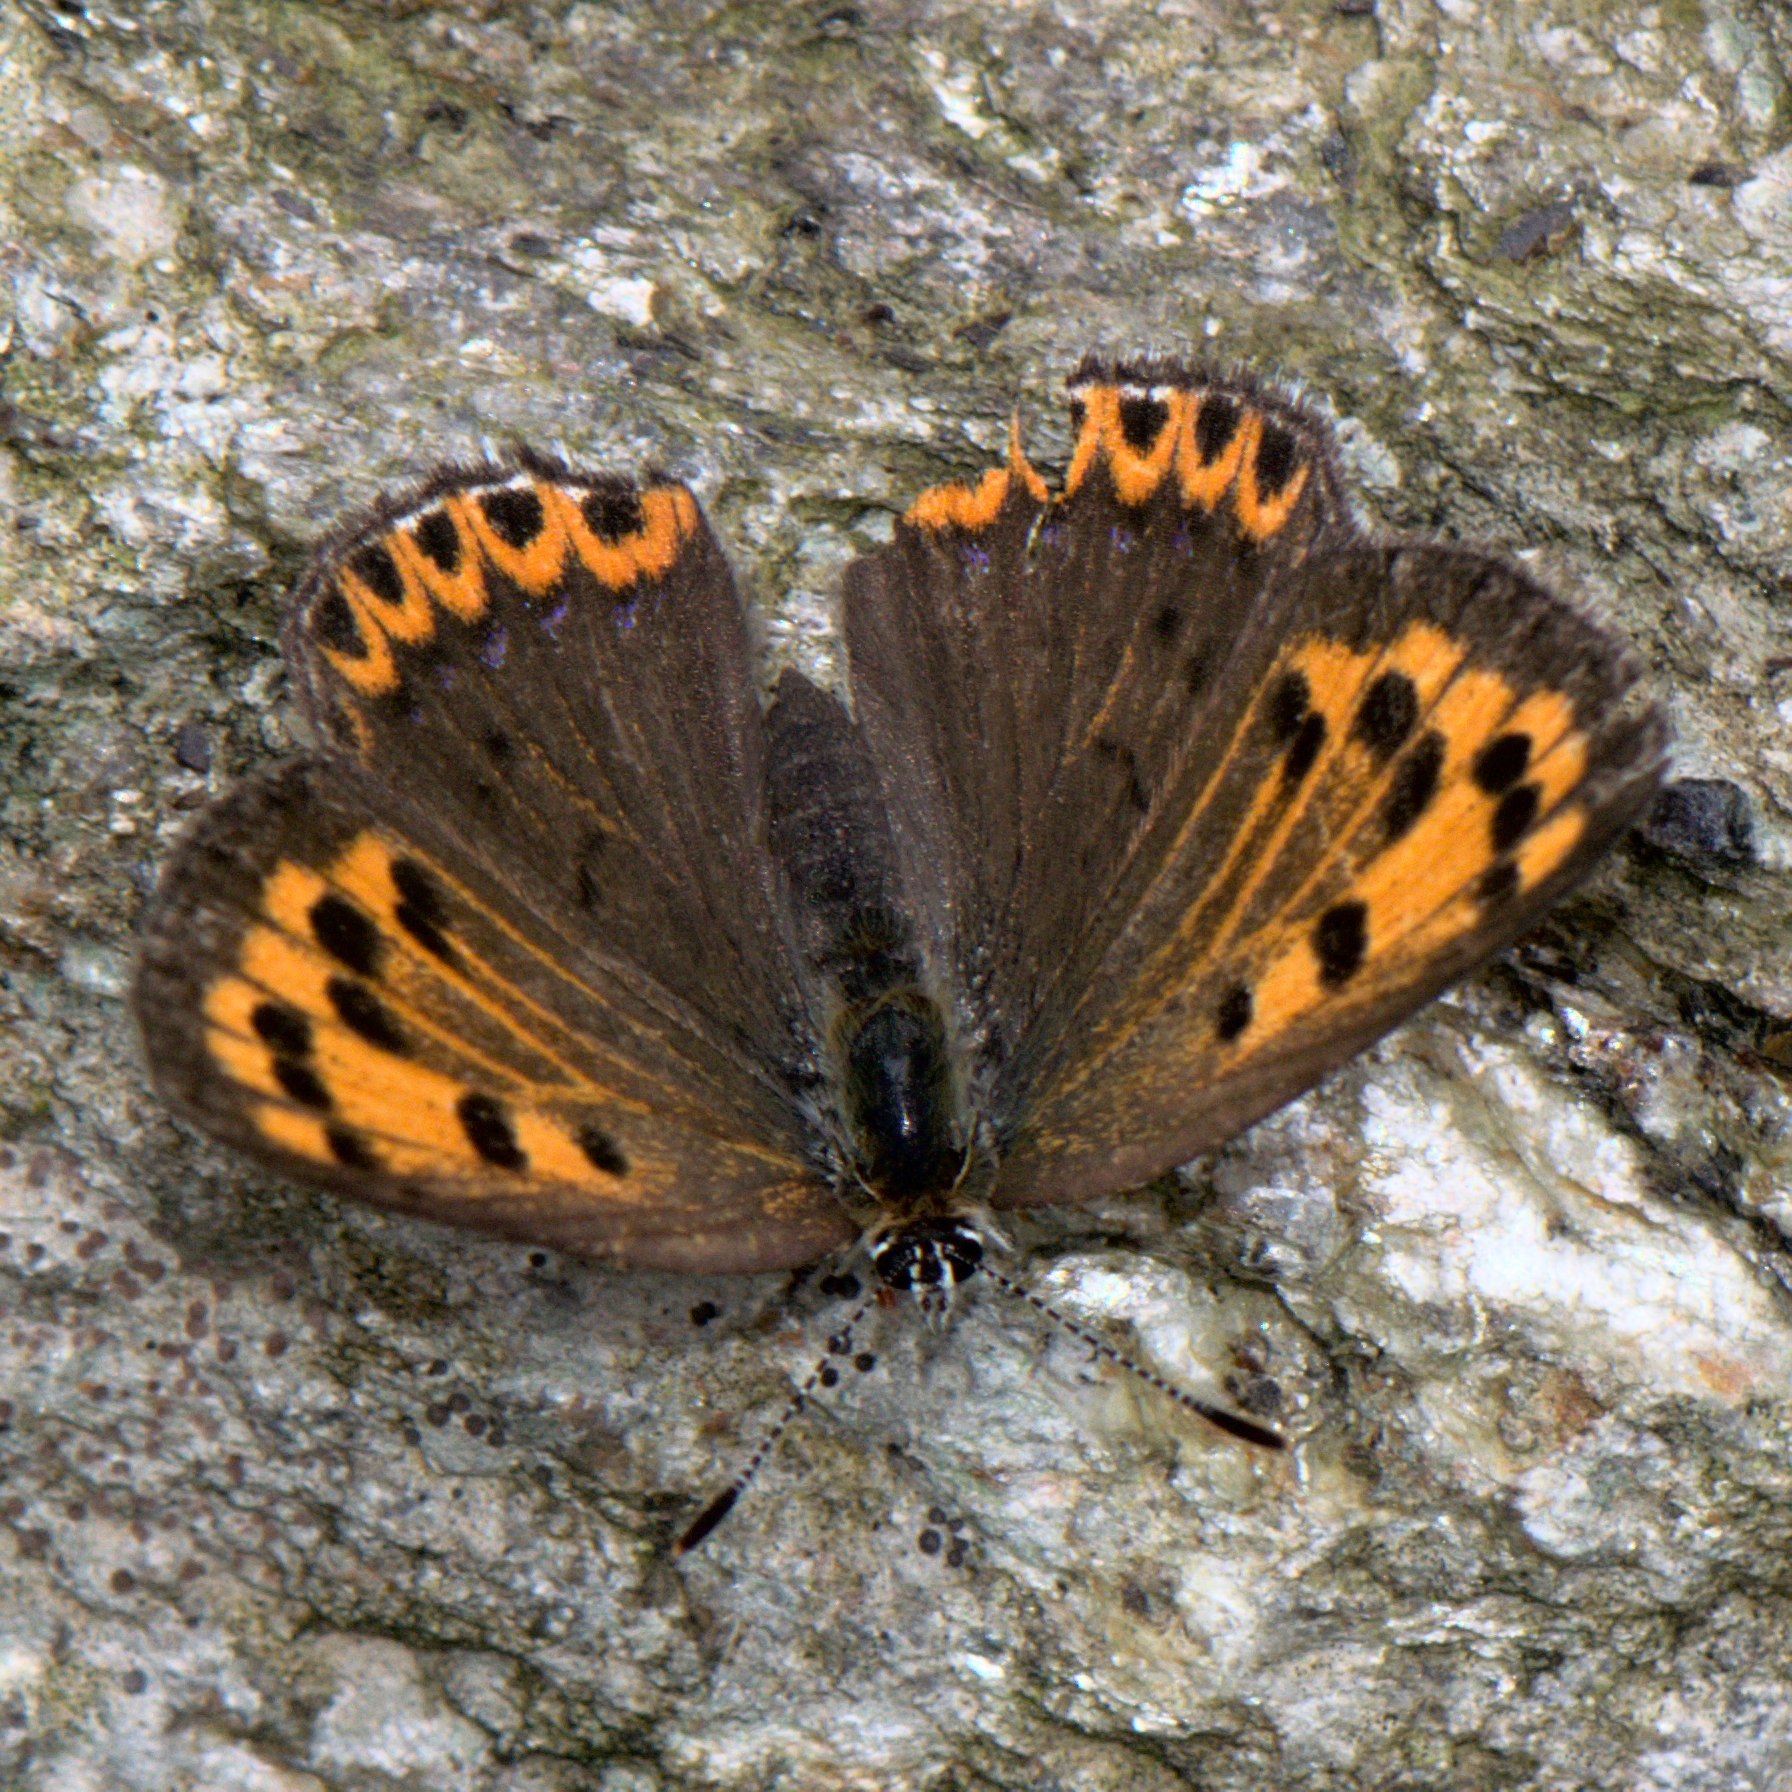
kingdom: Animalia
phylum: Arthropoda
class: Insecta
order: Lepidoptera
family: Lycaenidae
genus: Lycaena
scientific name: Lycaena panava
